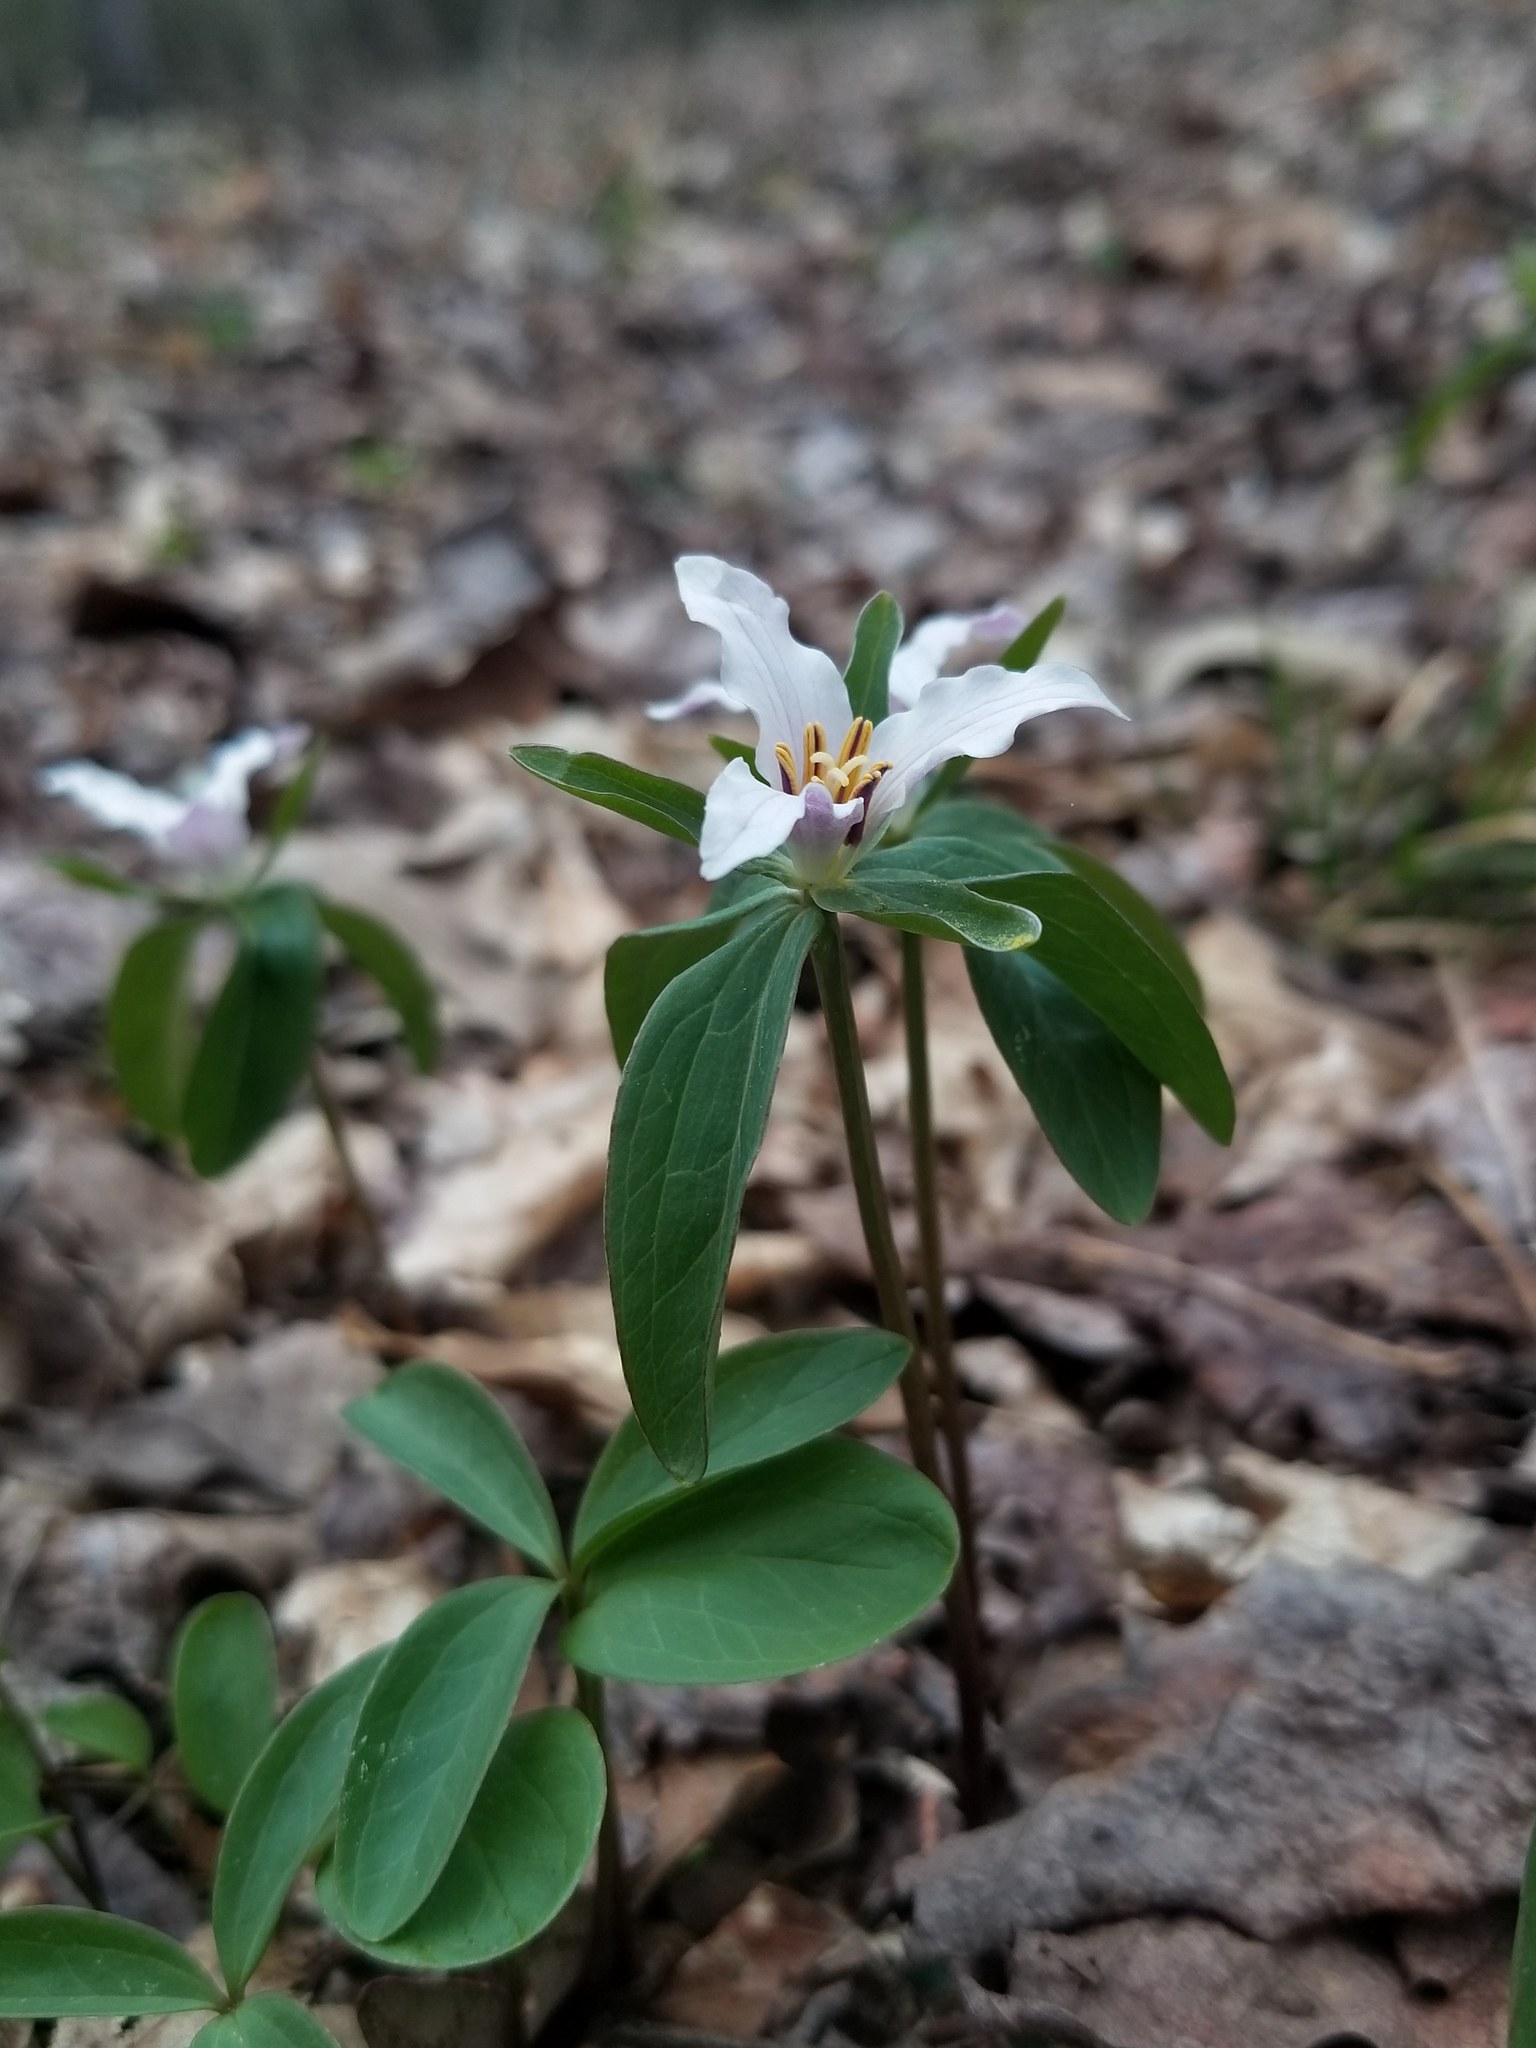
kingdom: Plantae
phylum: Tracheophyta
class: Liliopsida
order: Liliales
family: Melanthiaceae
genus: Trillium
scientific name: Trillium pusillum
